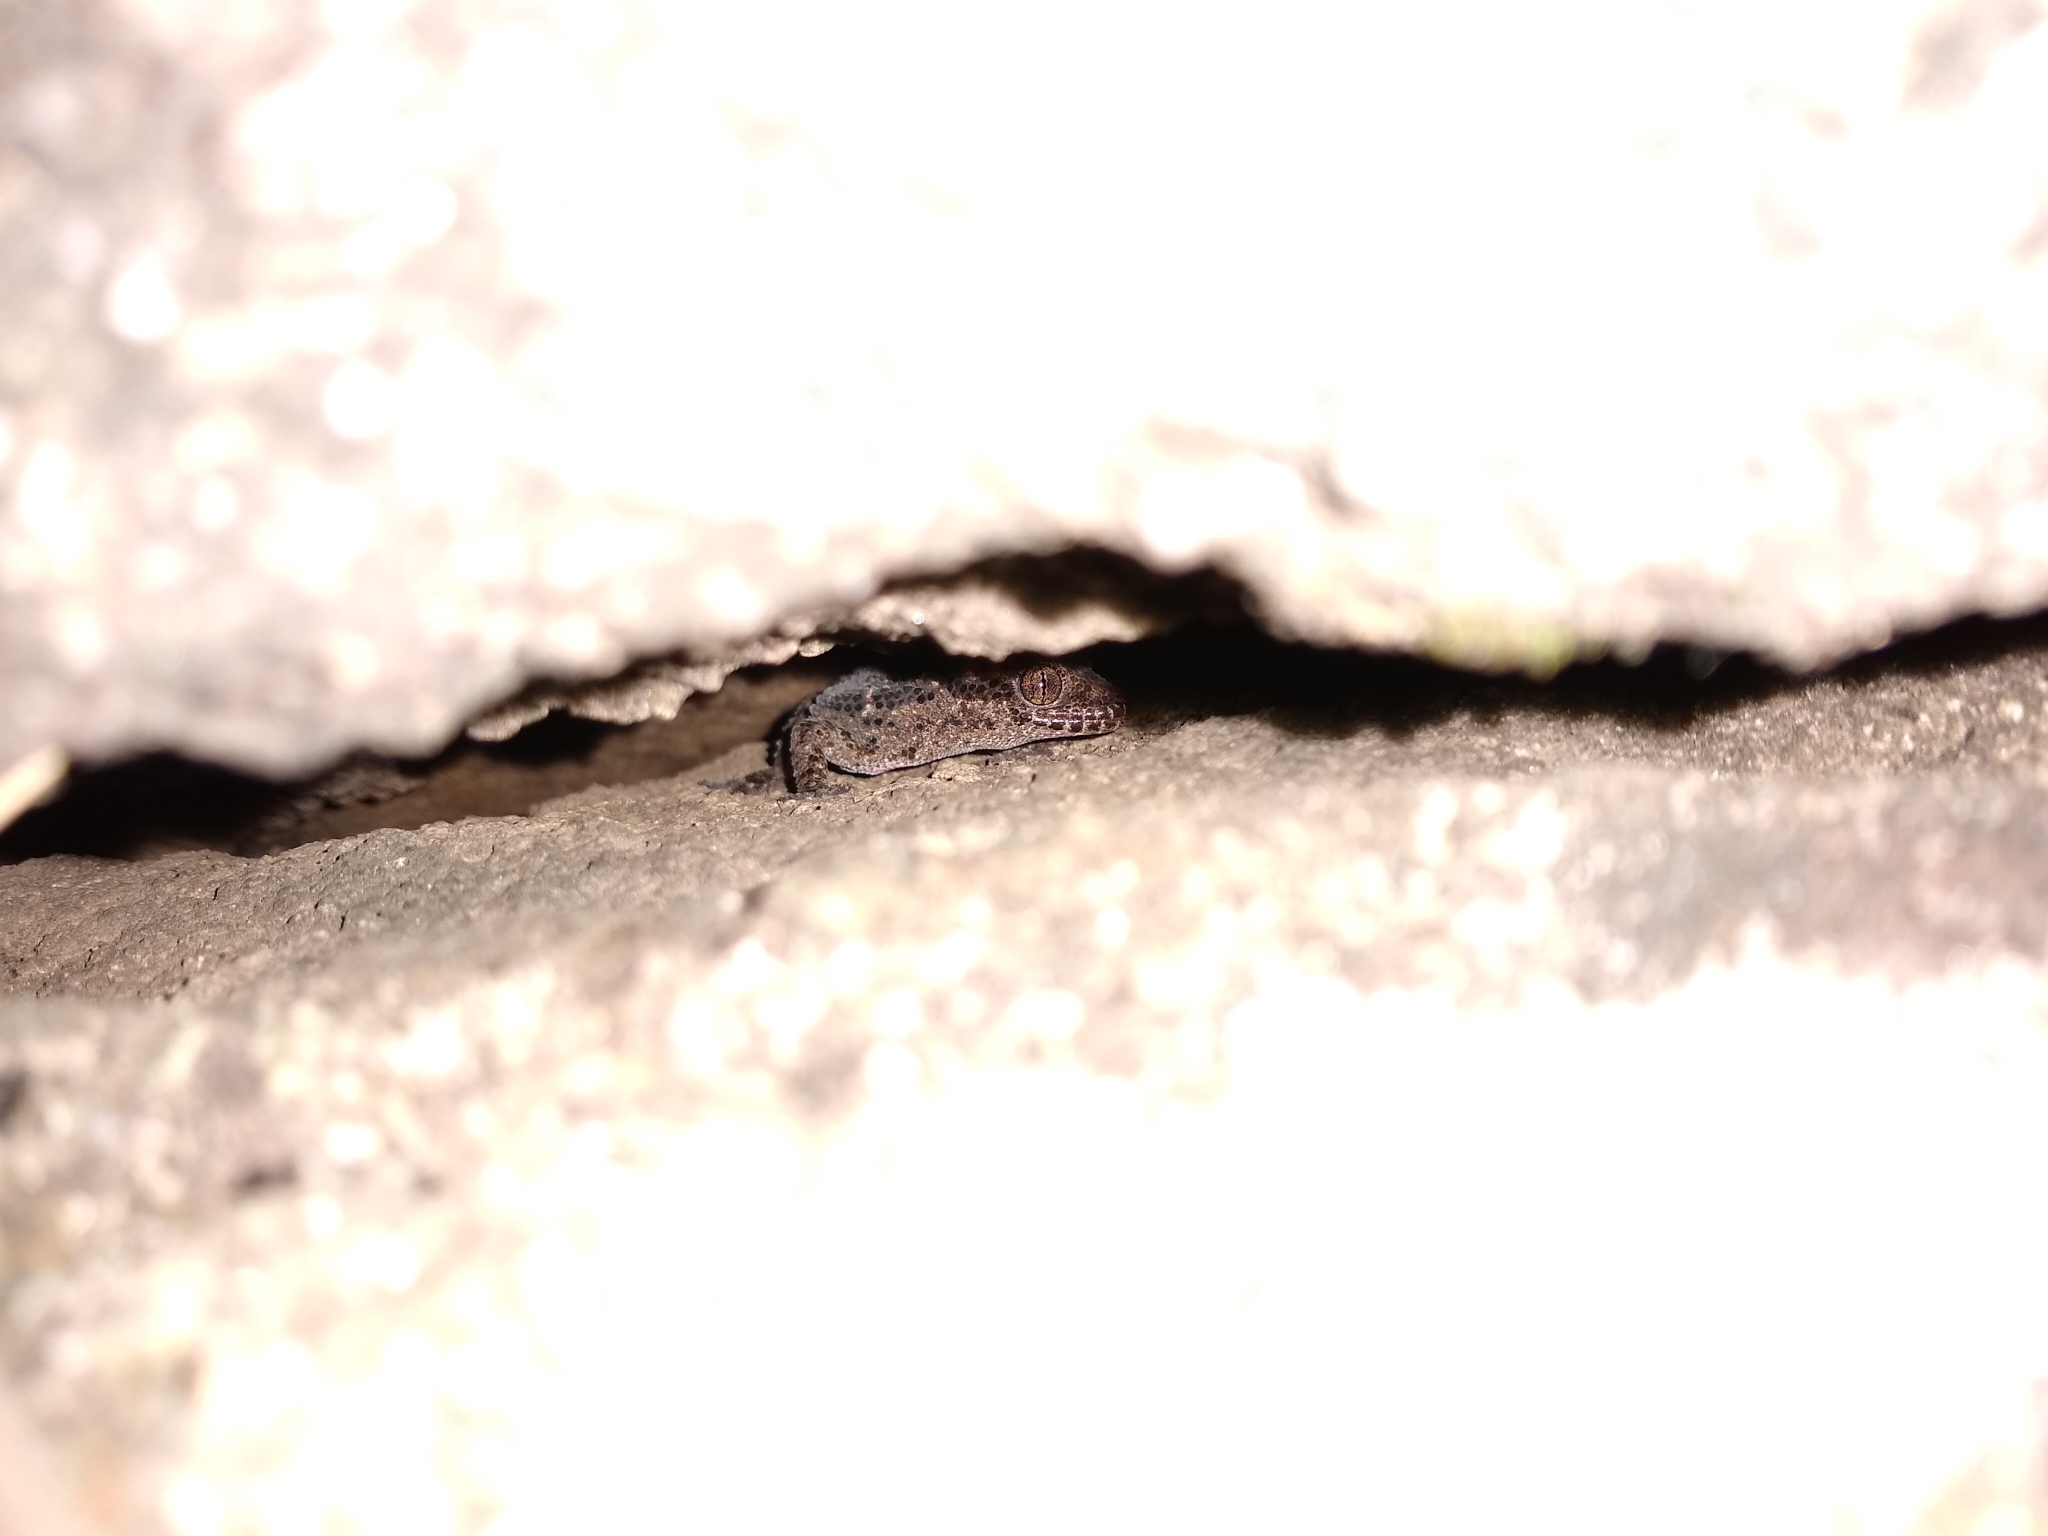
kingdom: Animalia
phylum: Chordata
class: Squamata
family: Phyllodactylidae
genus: Homonota
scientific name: Homonota horrida
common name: South american marked gecko
